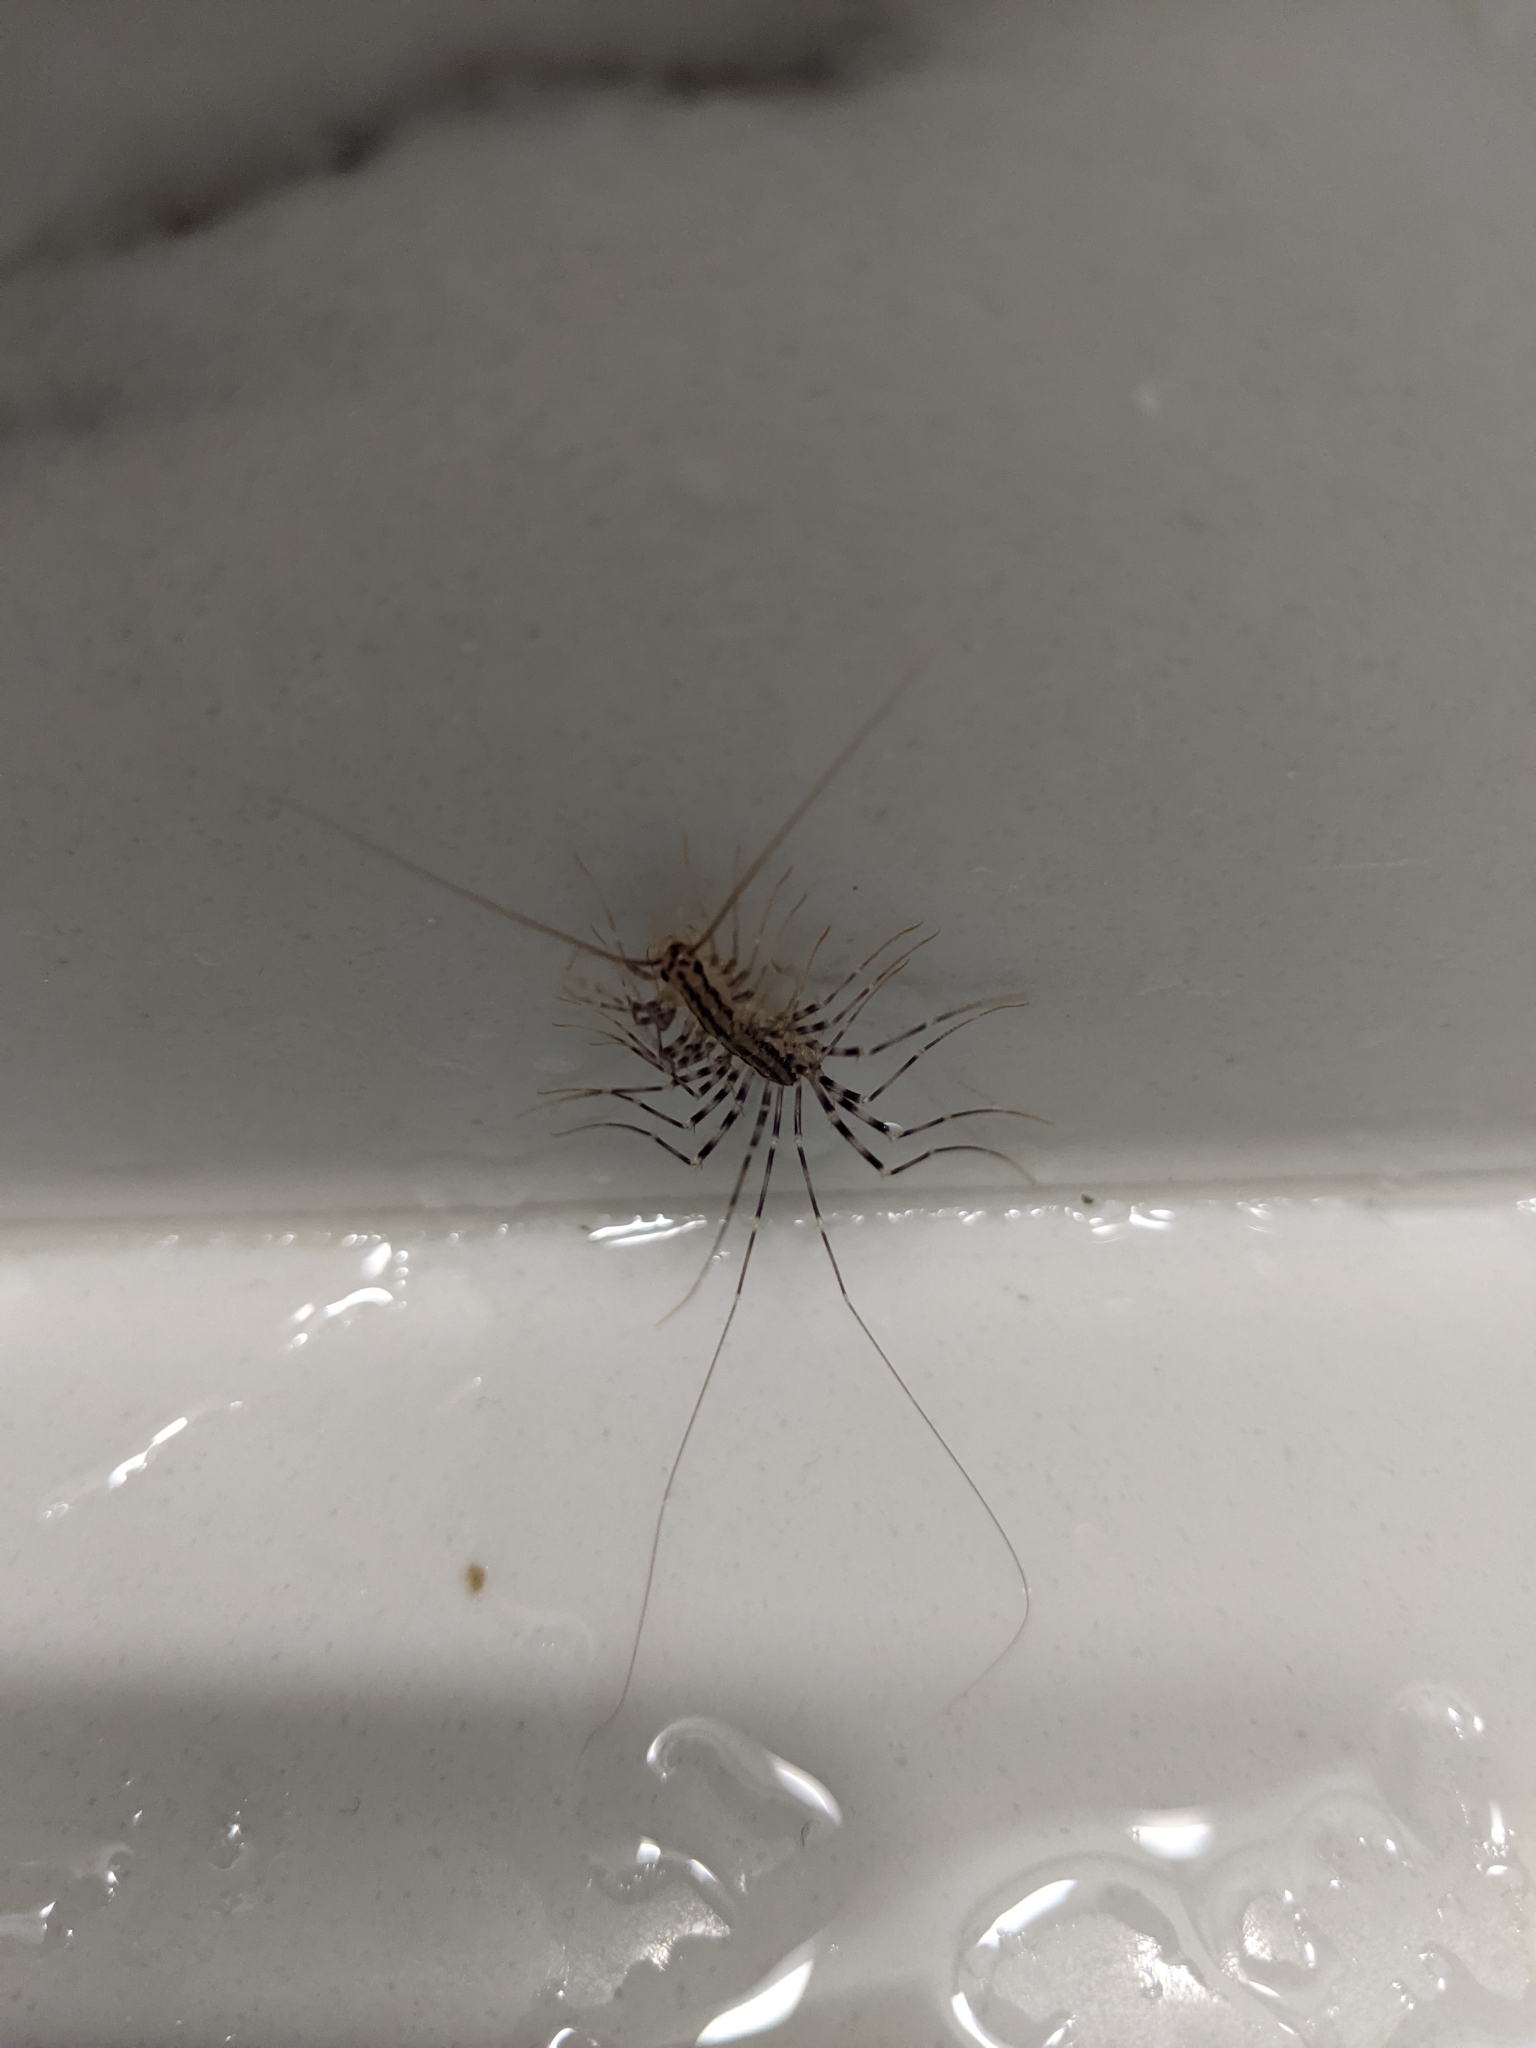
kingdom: Animalia
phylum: Arthropoda
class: Chilopoda
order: Scutigeromorpha
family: Scutigeridae
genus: Scutigera
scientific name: Scutigera coleoptrata
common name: House centipede
